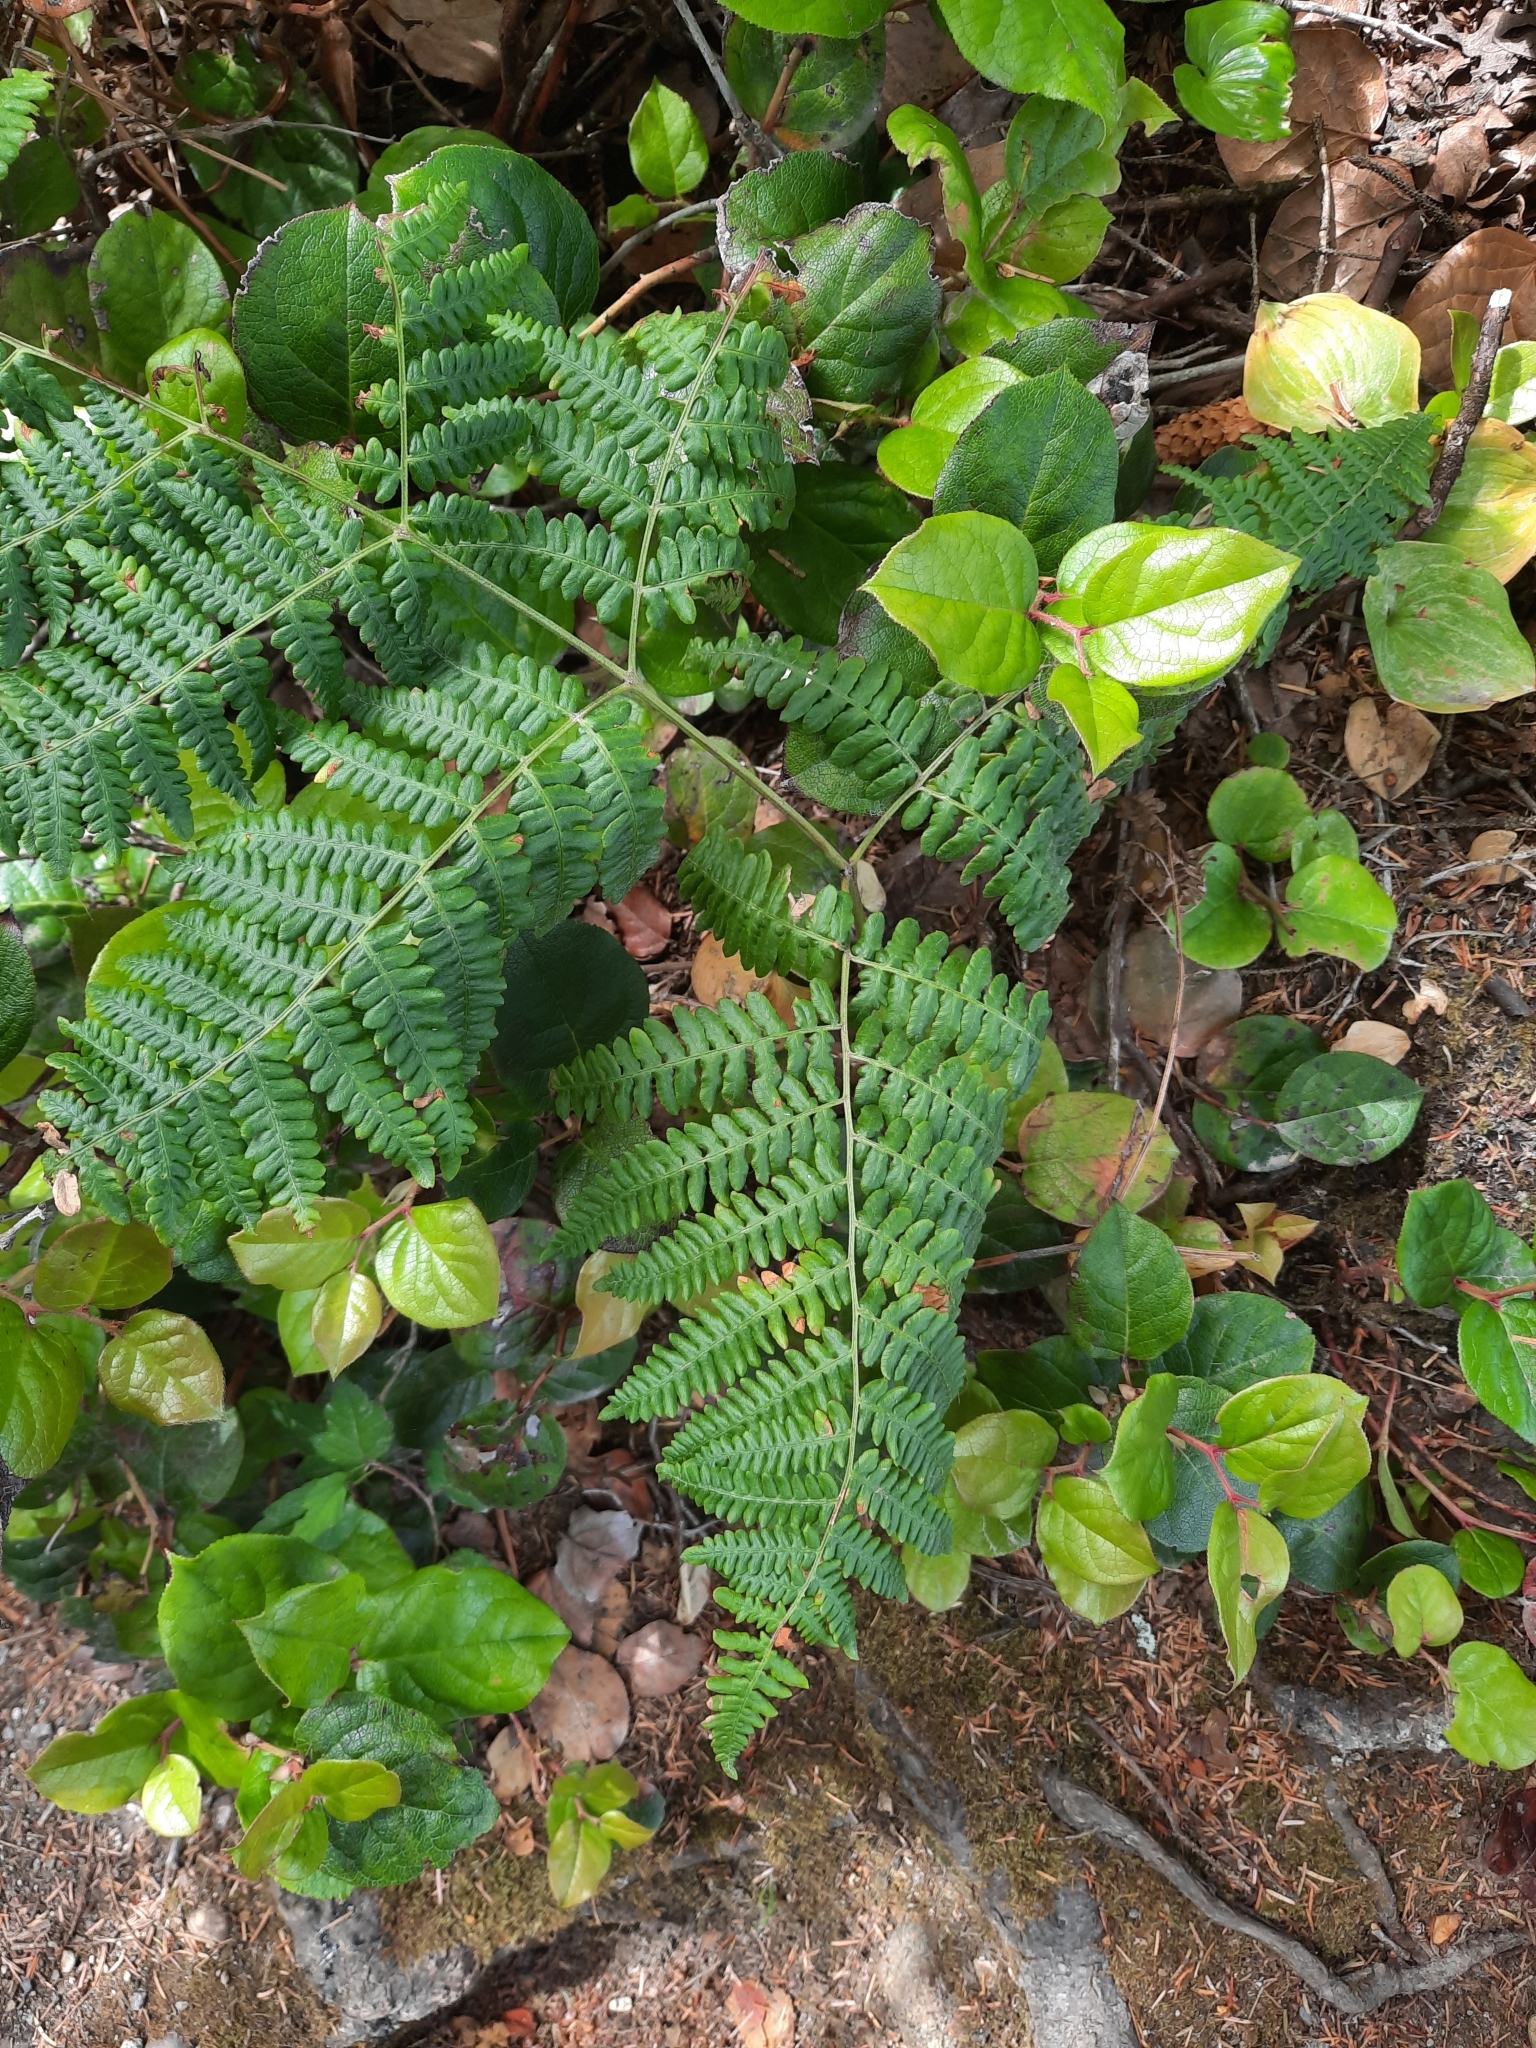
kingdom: Plantae
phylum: Tracheophyta
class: Polypodiopsida
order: Polypodiales
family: Dennstaedtiaceae
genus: Pteridium
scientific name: Pteridium aquilinum
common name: Bracken
